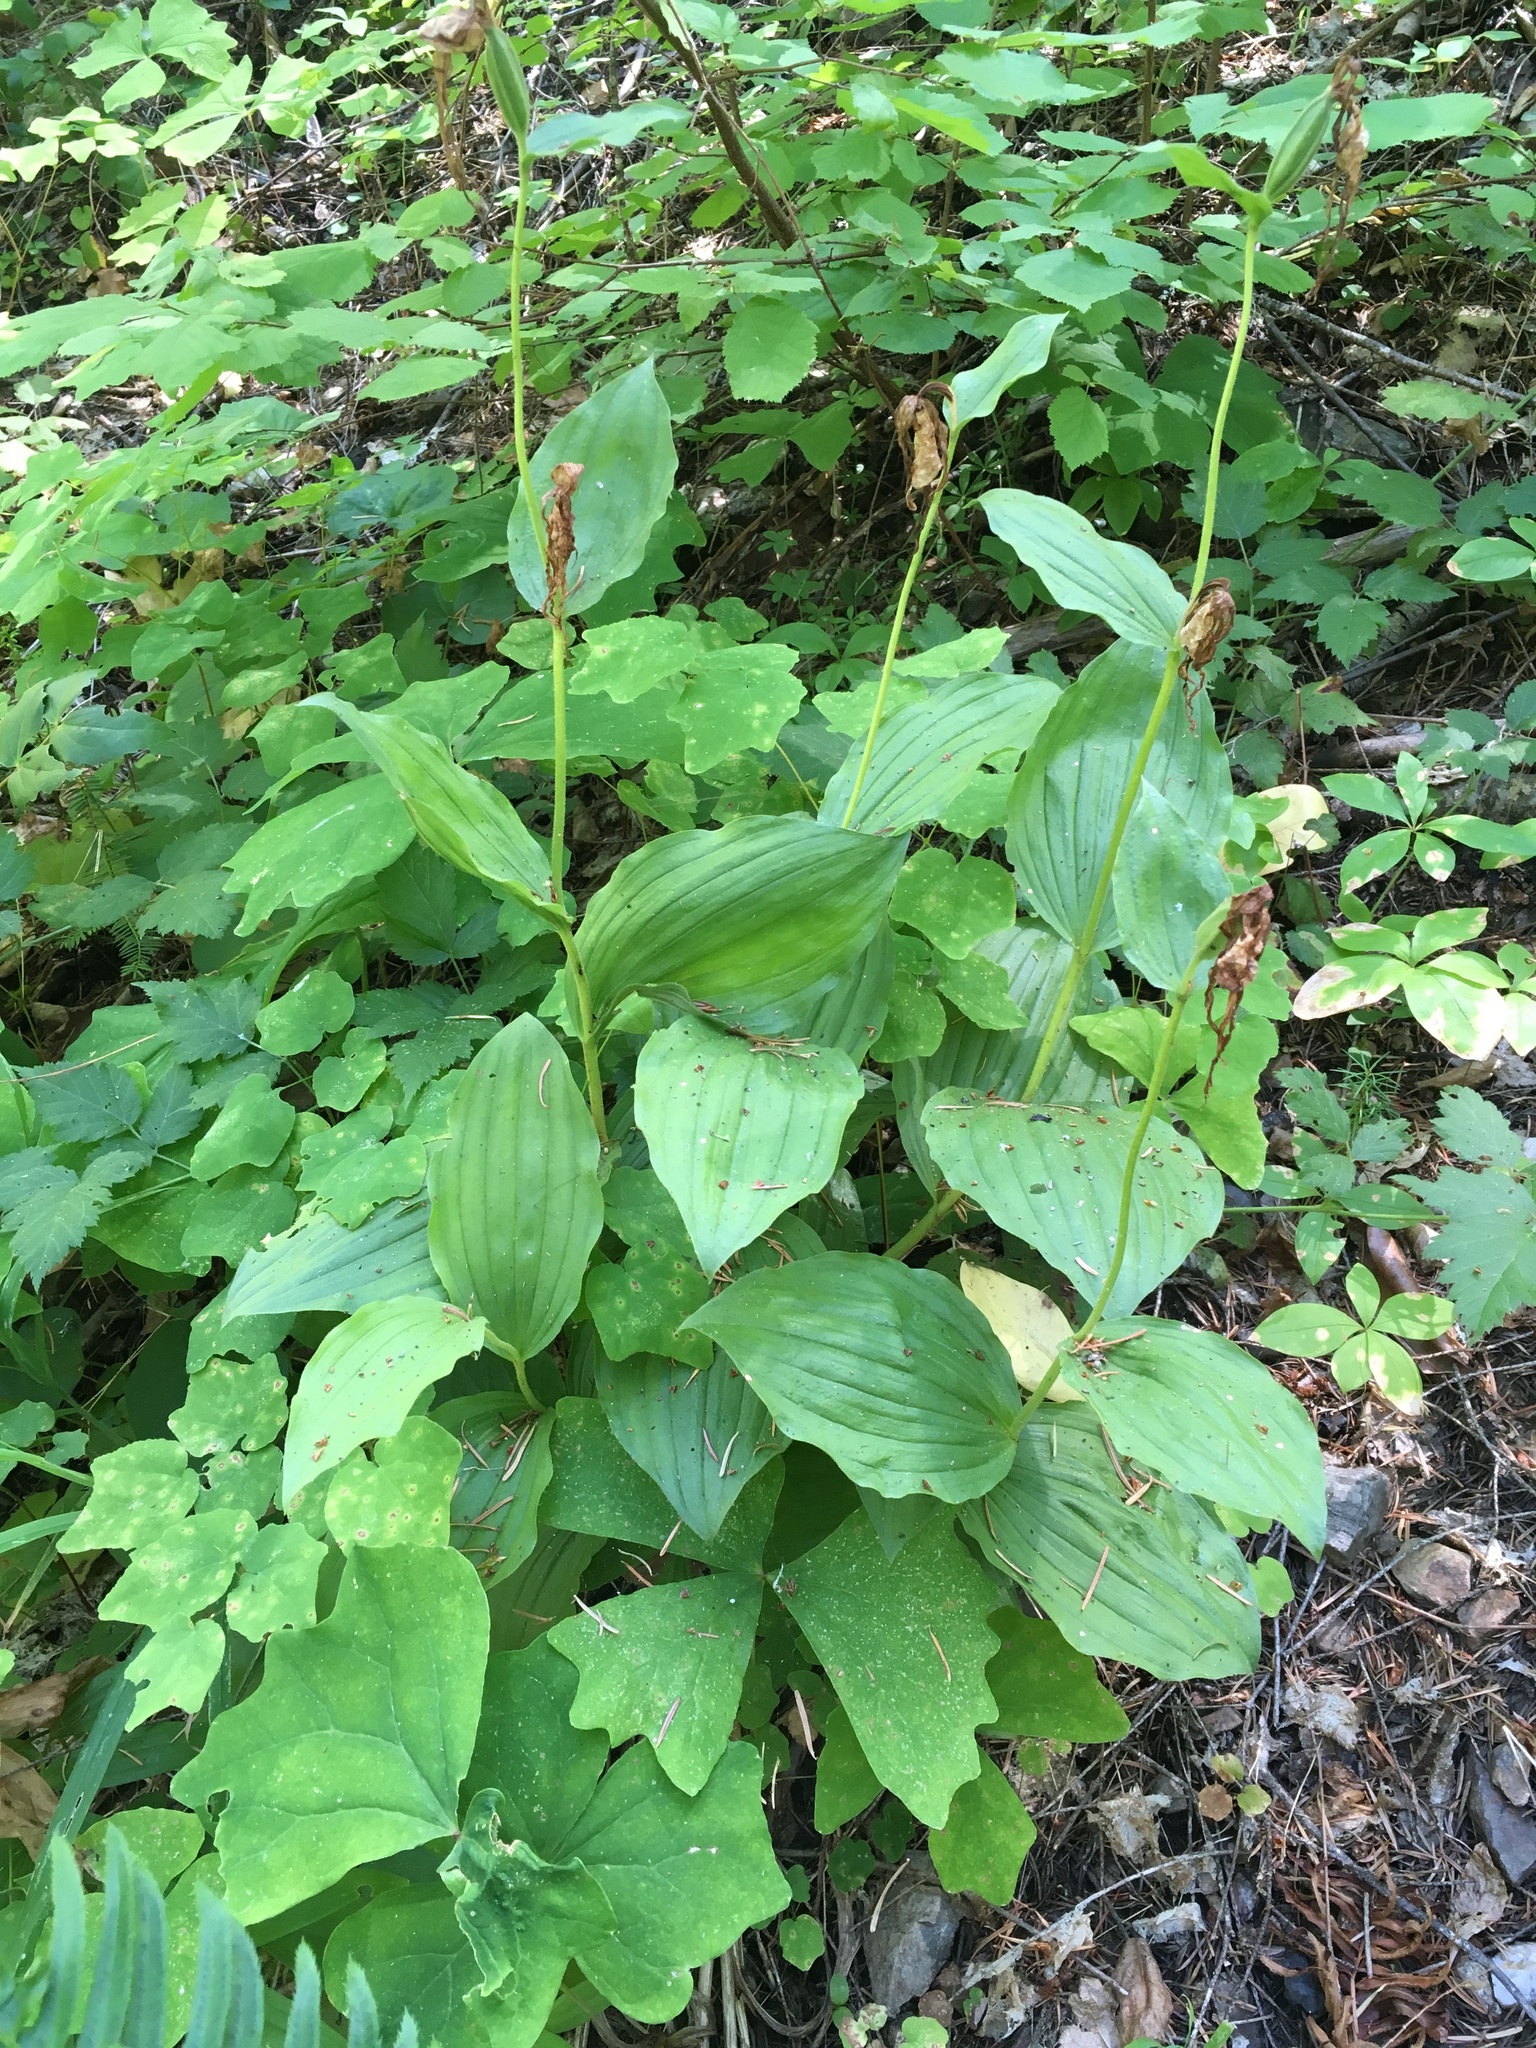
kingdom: Plantae
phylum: Tracheophyta
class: Liliopsida
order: Asparagales
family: Orchidaceae
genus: Cypripedium
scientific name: Cypripedium montanum
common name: Mountain lady's-slipper
